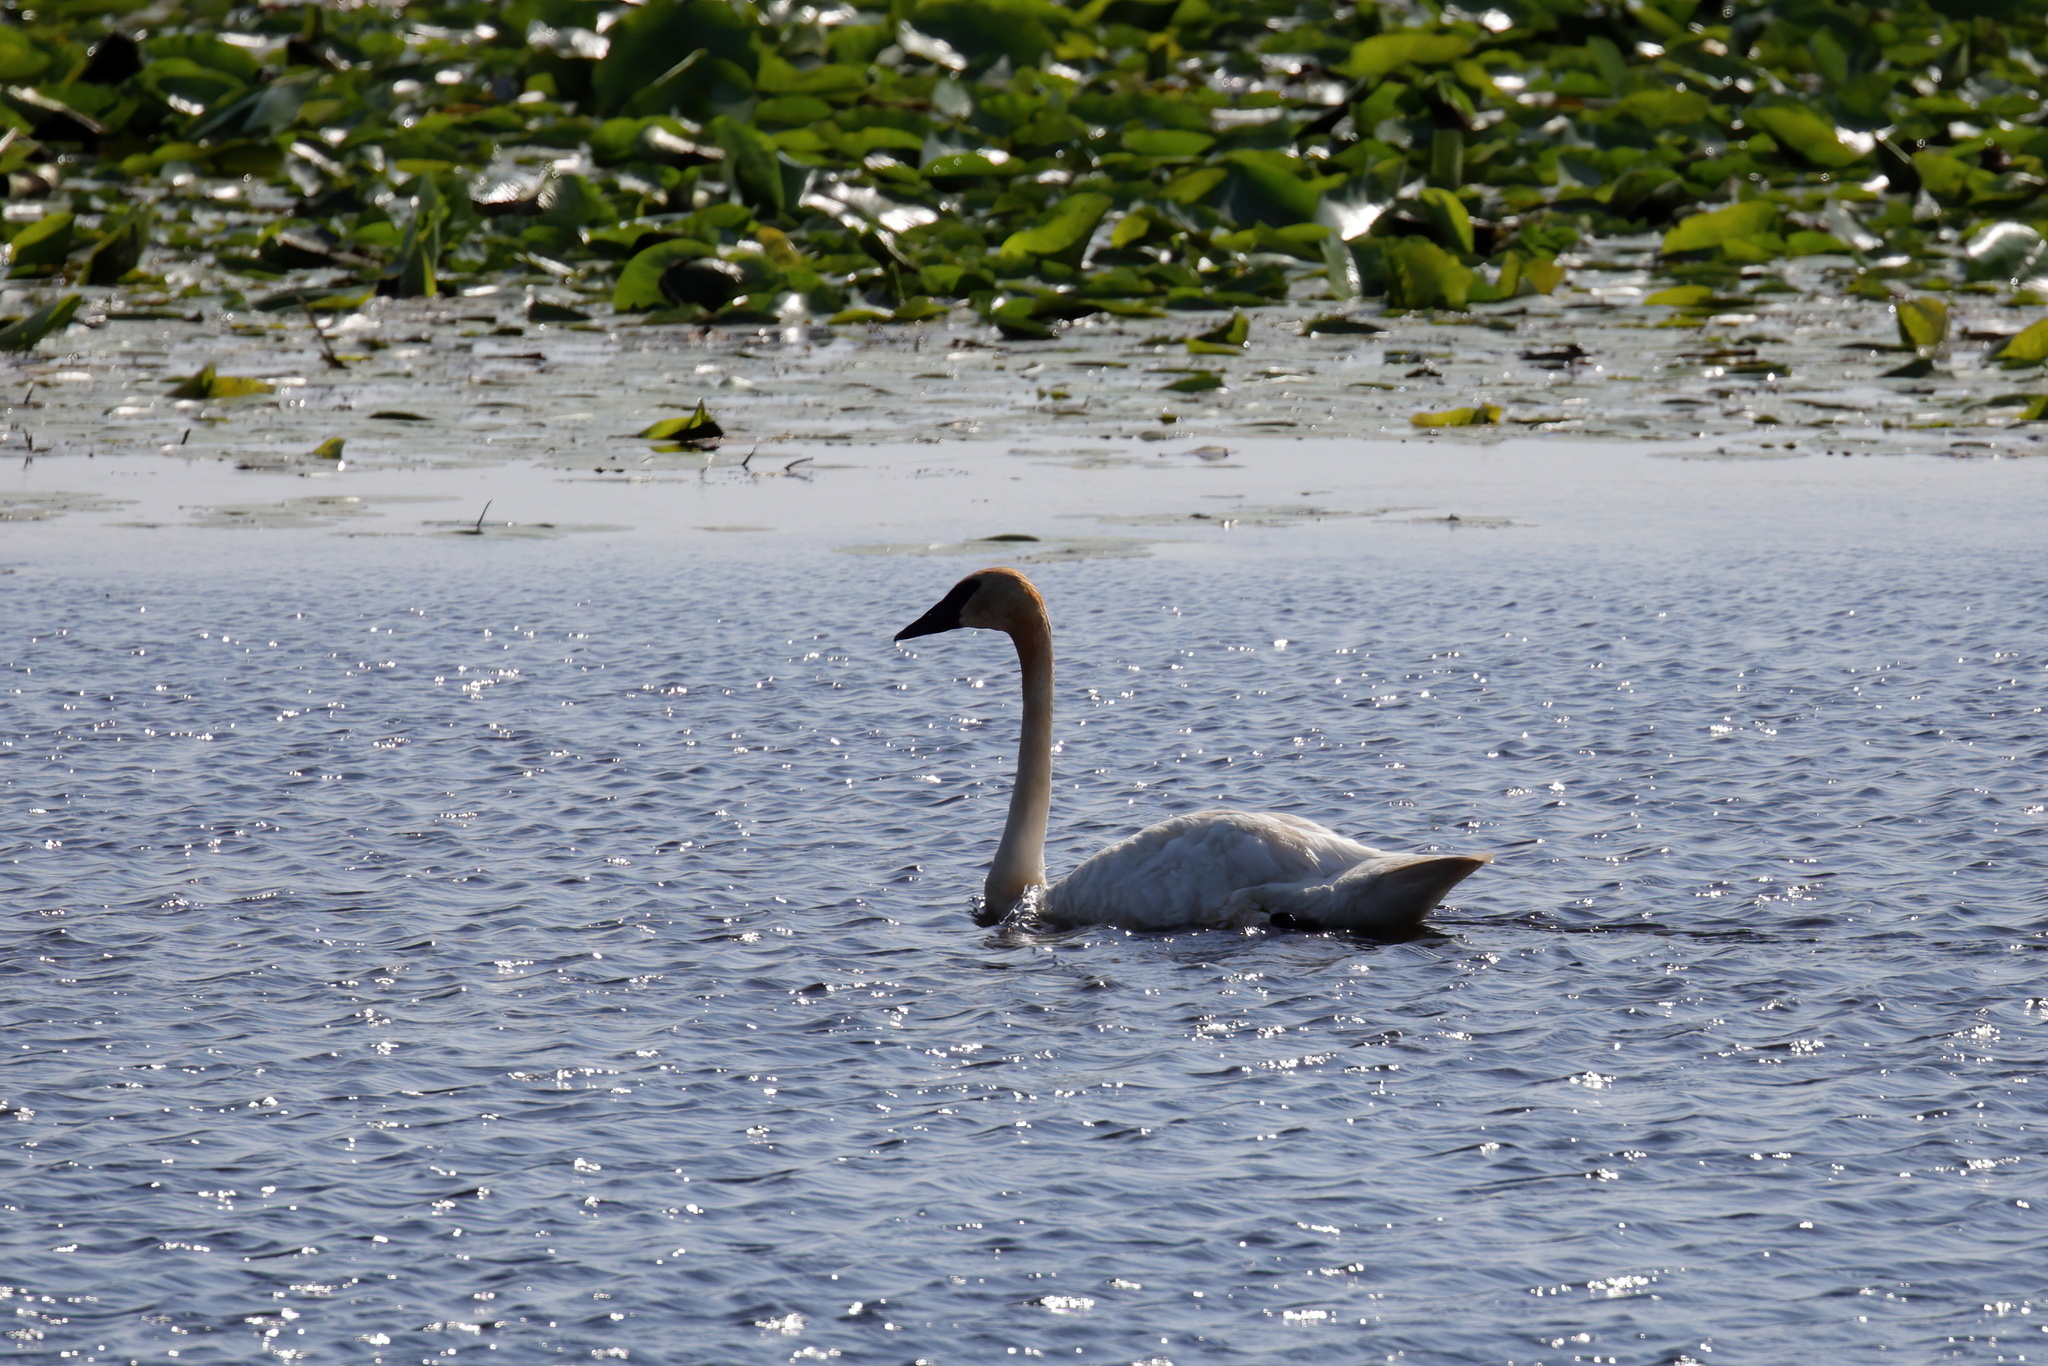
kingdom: Animalia
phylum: Chordata
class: Aves
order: Anseriformes
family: Anatidae
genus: Cygnus
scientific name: Cygnus buccinator
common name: Trumpeter swan
